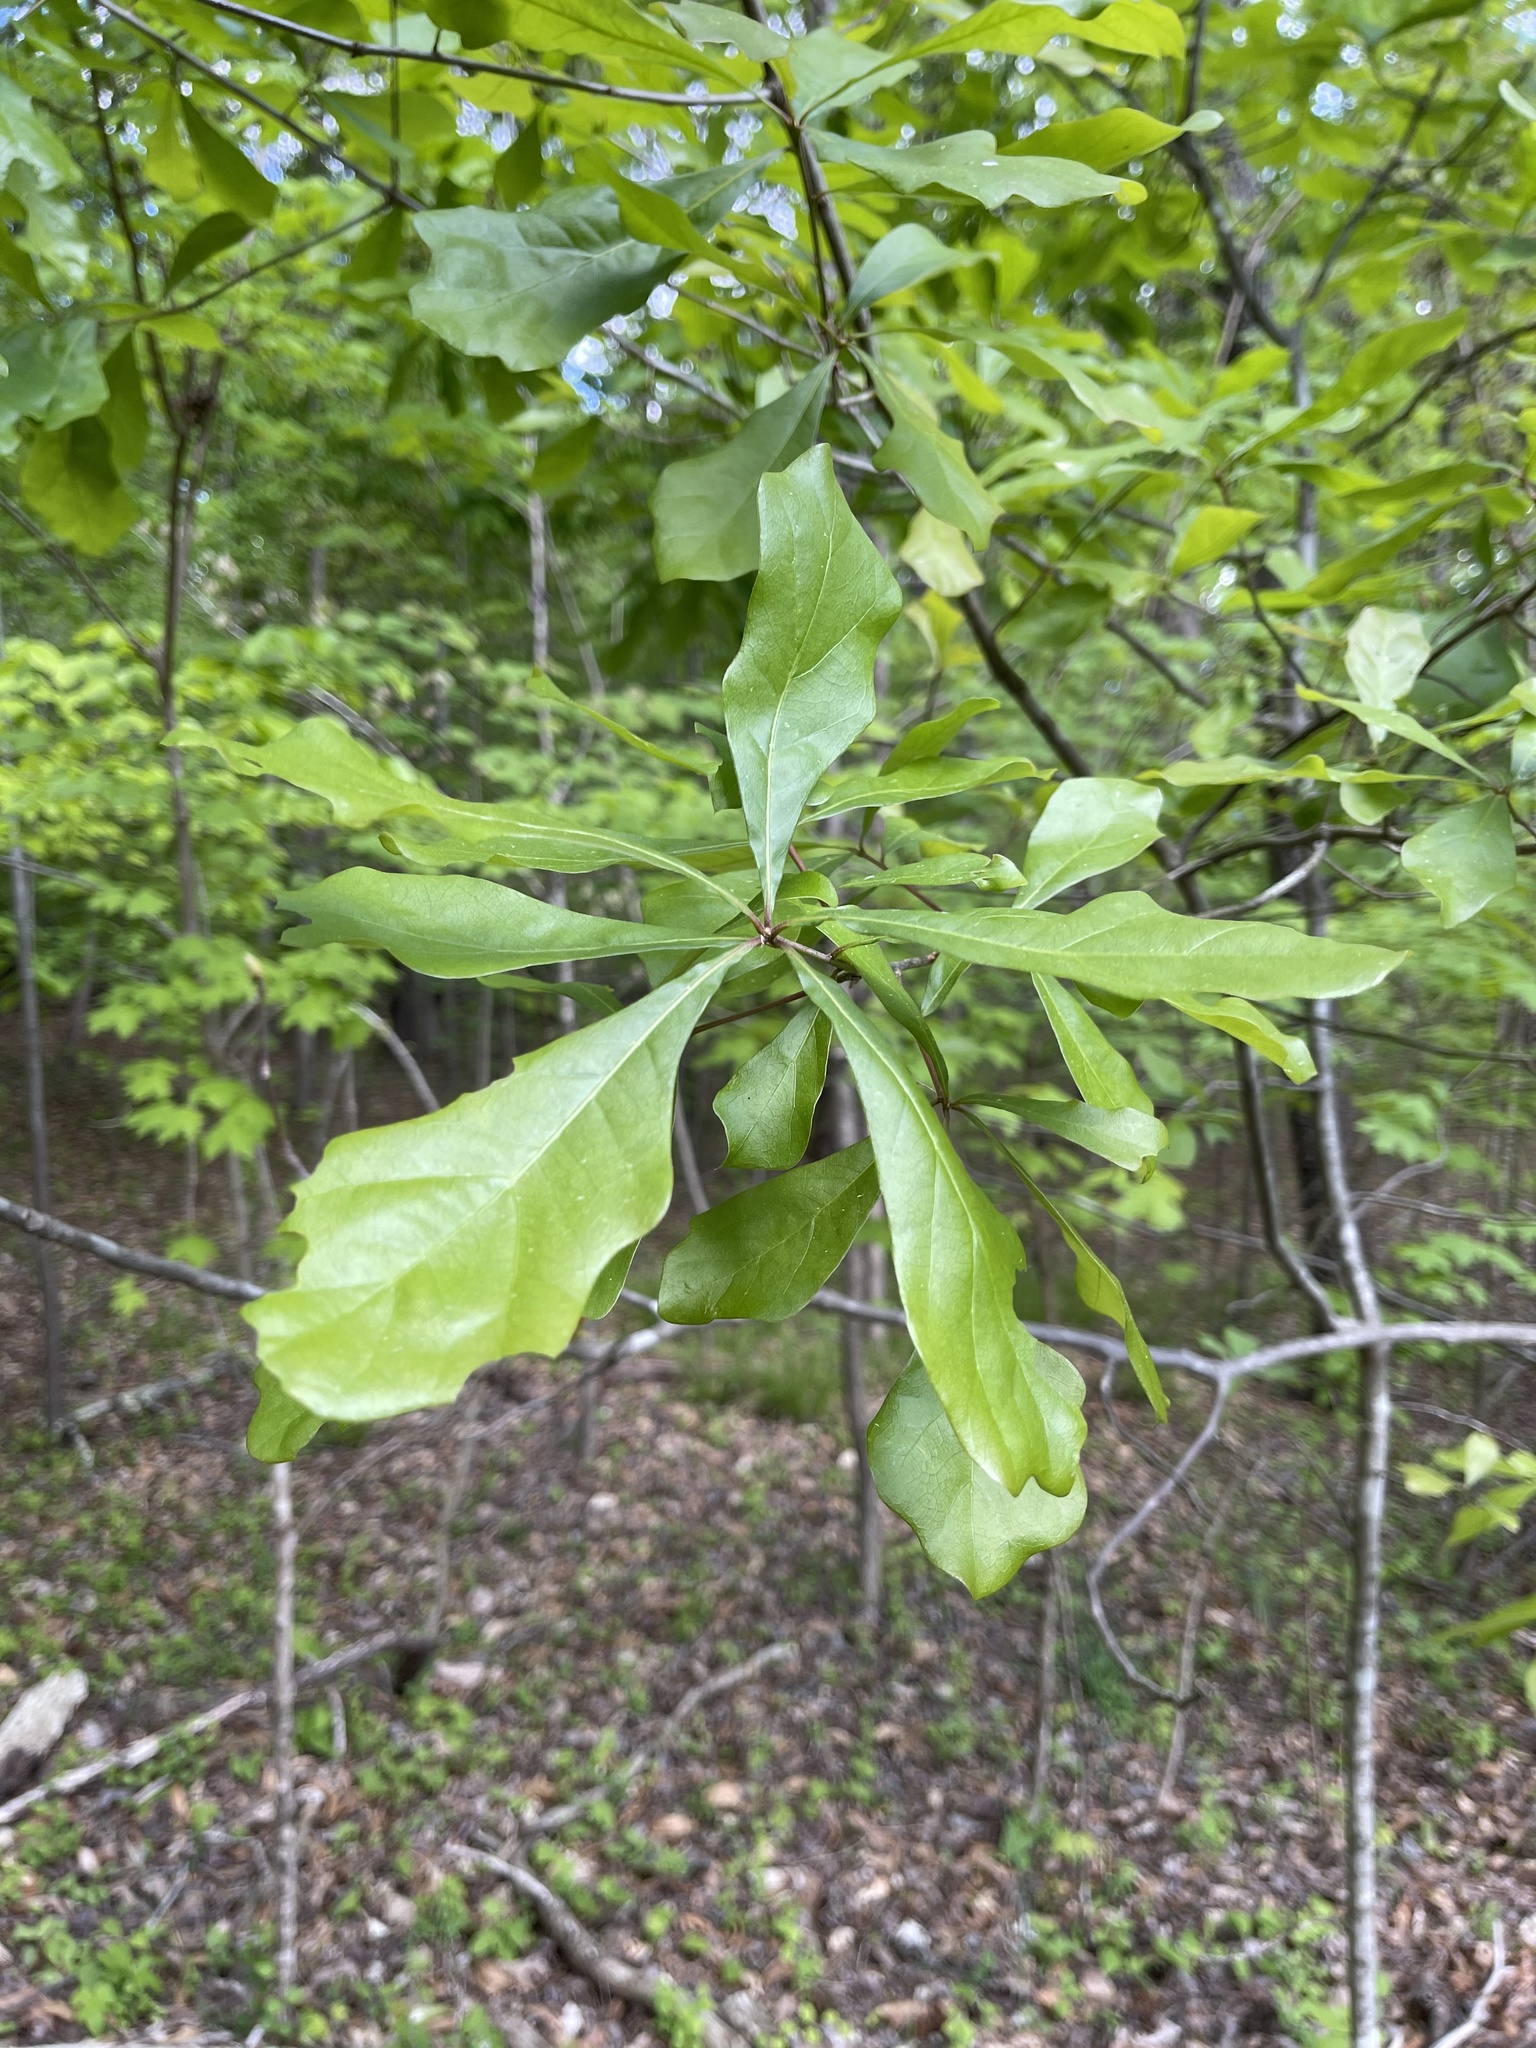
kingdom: Plantae
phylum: Tracheophyta
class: Magnoliopsida
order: Fagales
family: Fagaceae
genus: Quercus
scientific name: Quercus nigra
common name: Water oak
